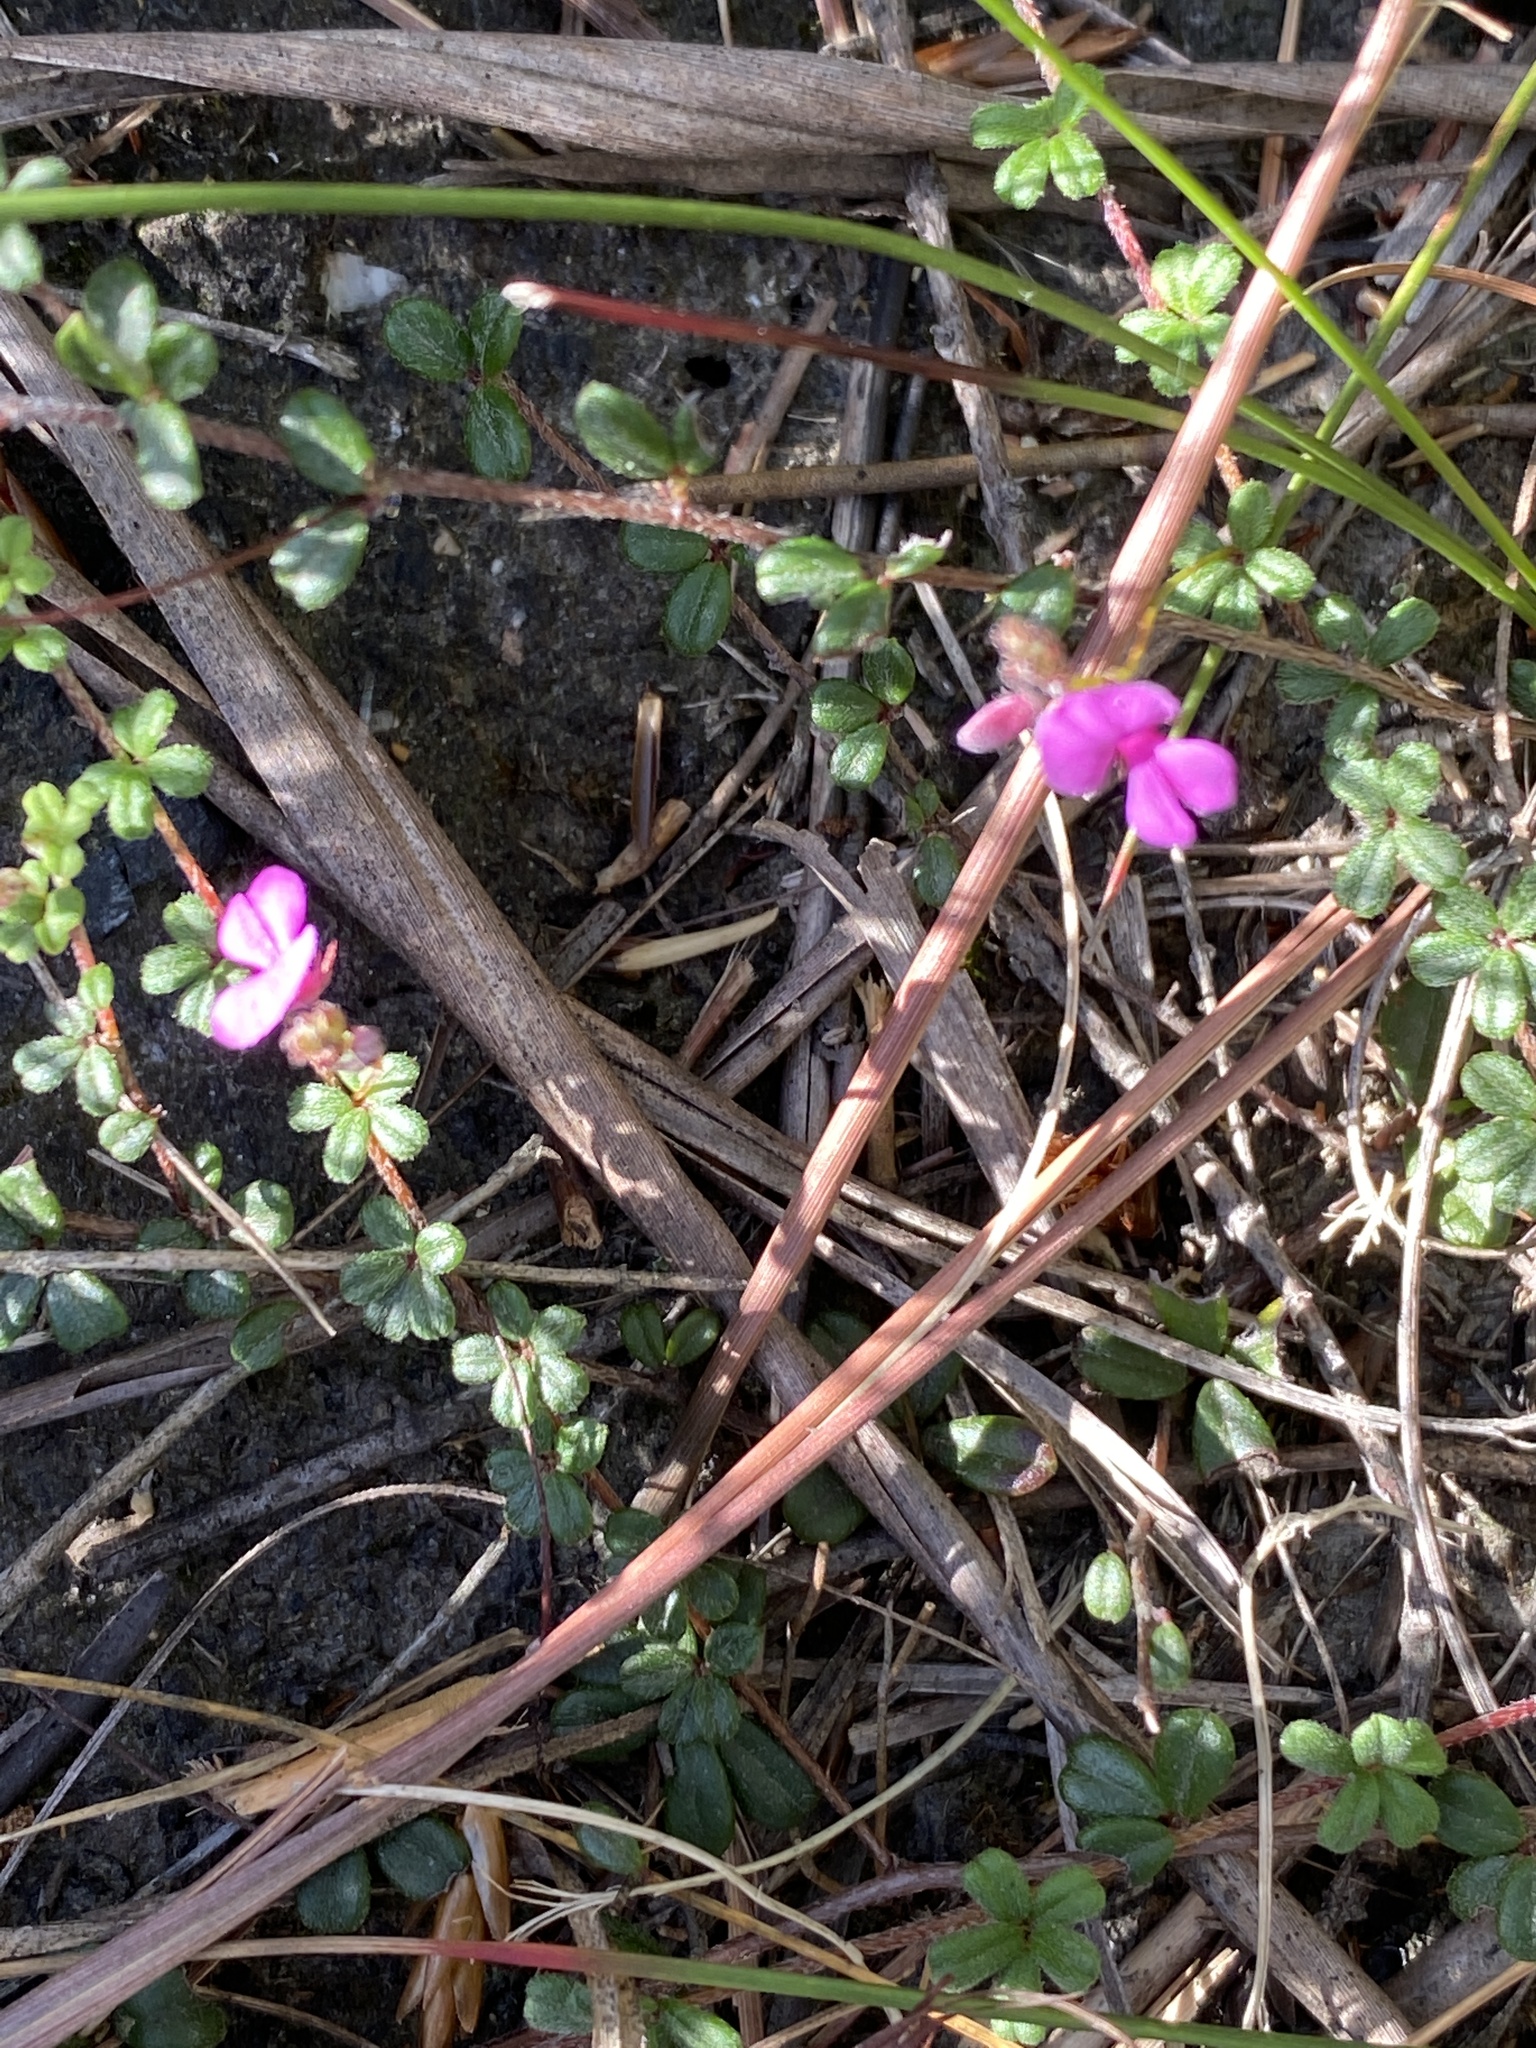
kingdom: Plantae
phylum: Tracheophyta
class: Magnoliopsida
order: Fabales
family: Fabaceae
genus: Indigofera
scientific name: Indigofera
